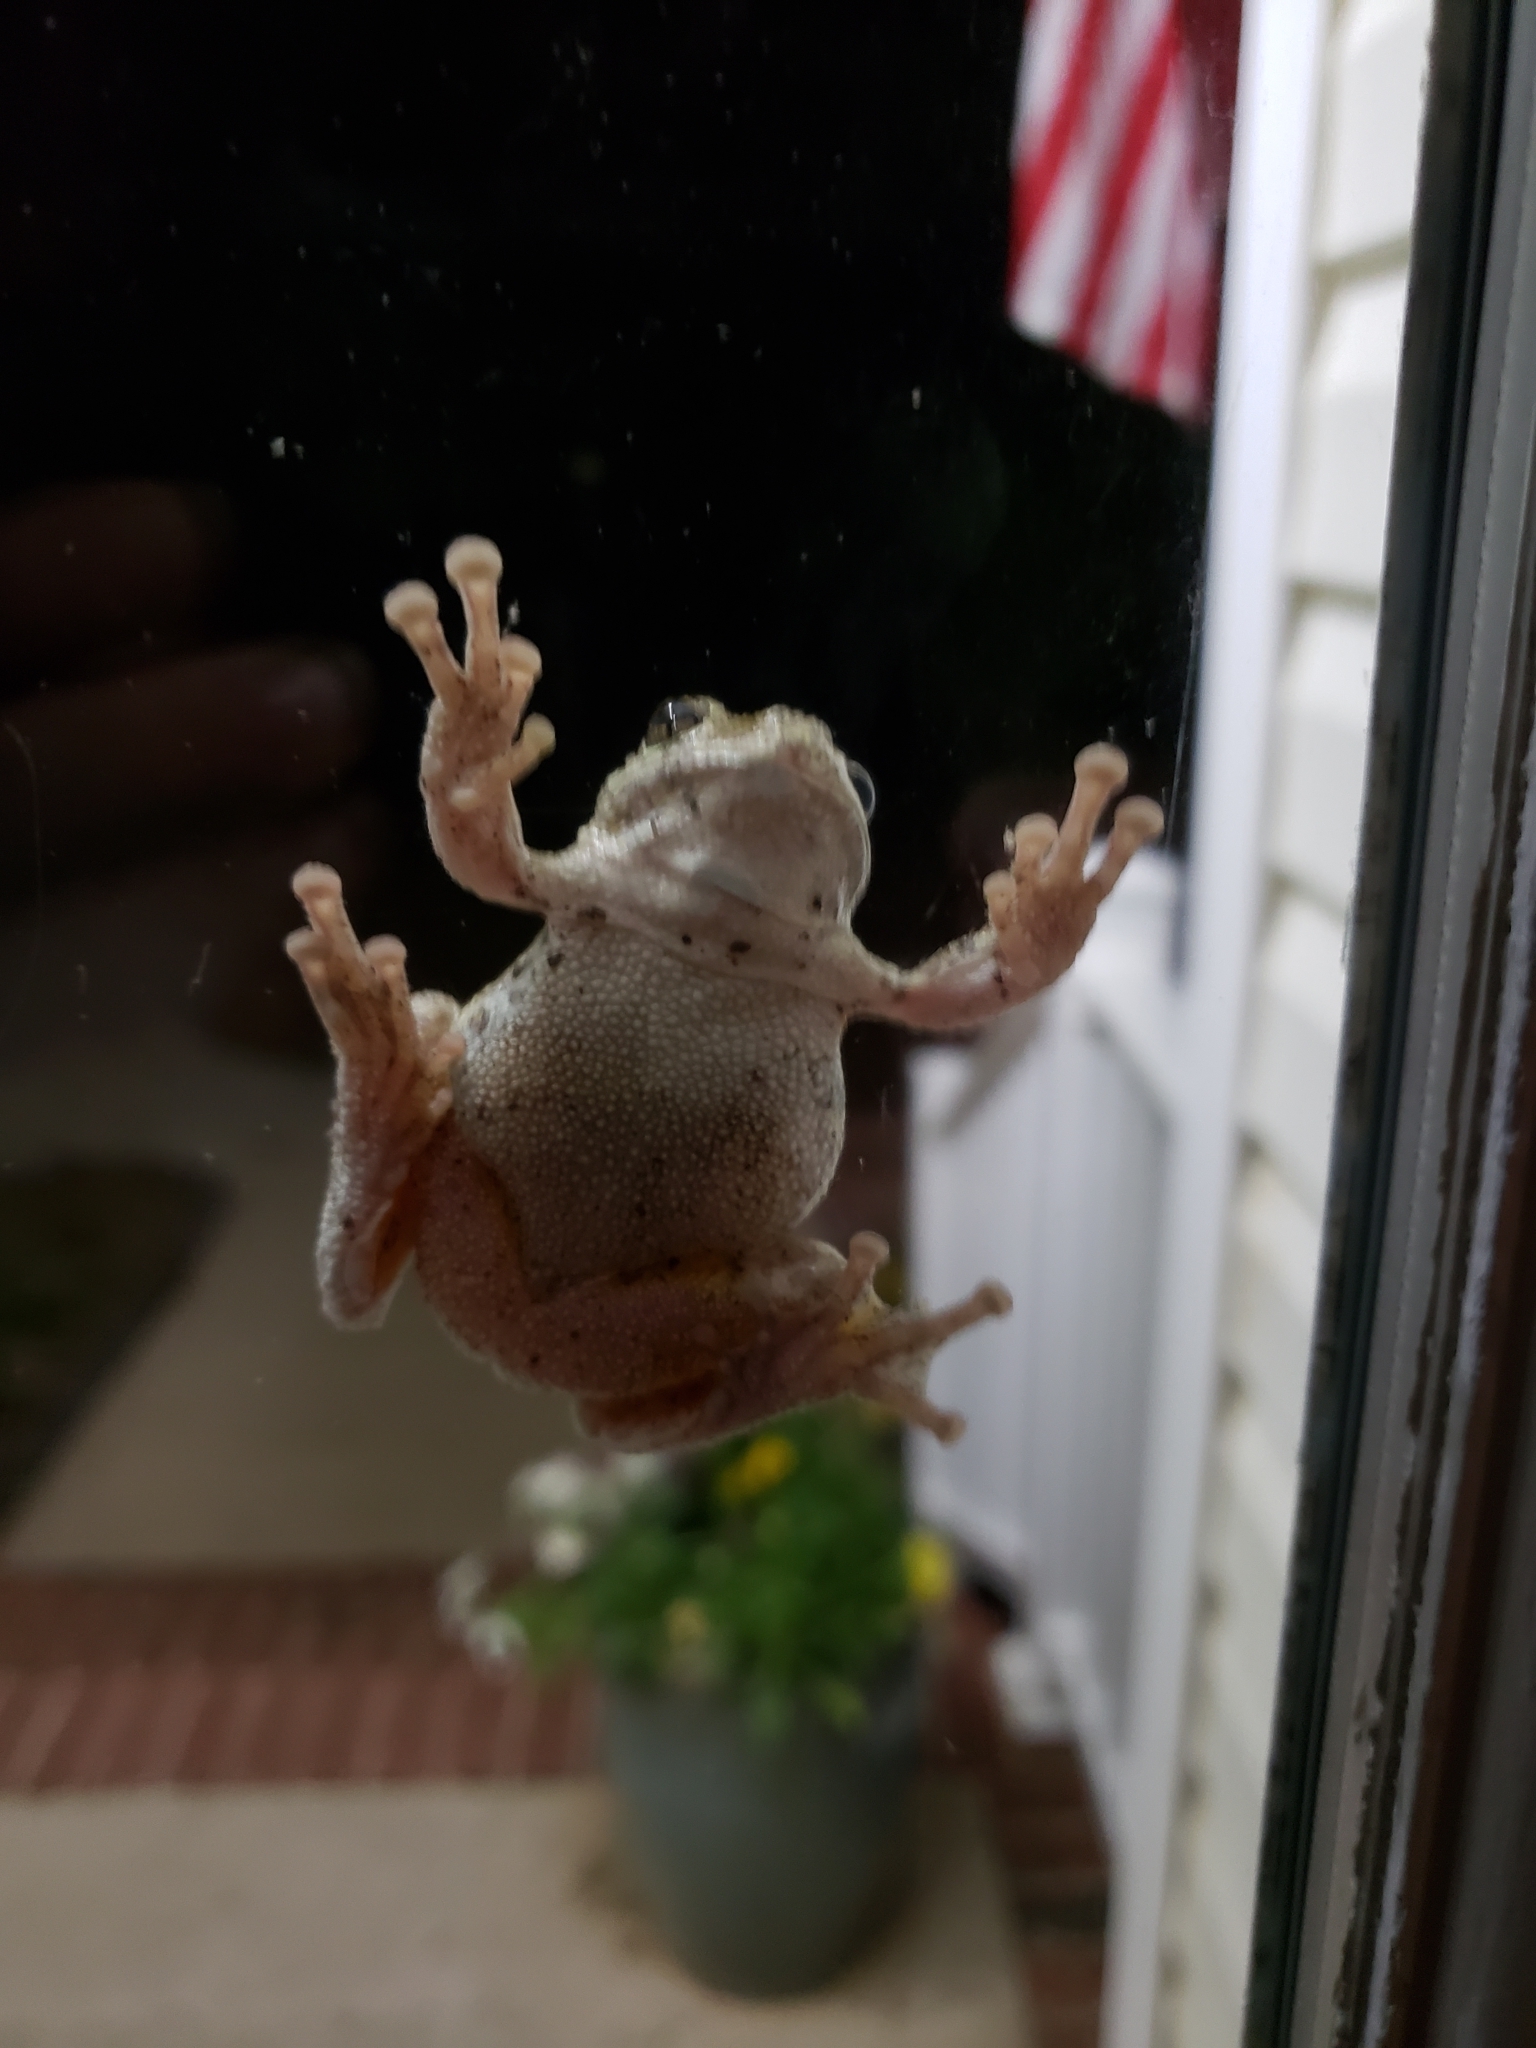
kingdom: Animalia
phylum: Chordata
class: Amphibia
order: Anura
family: Hylidae
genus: Dryophytes
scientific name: Dryophytes chrysoscelis
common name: Cope's gray treefrog
